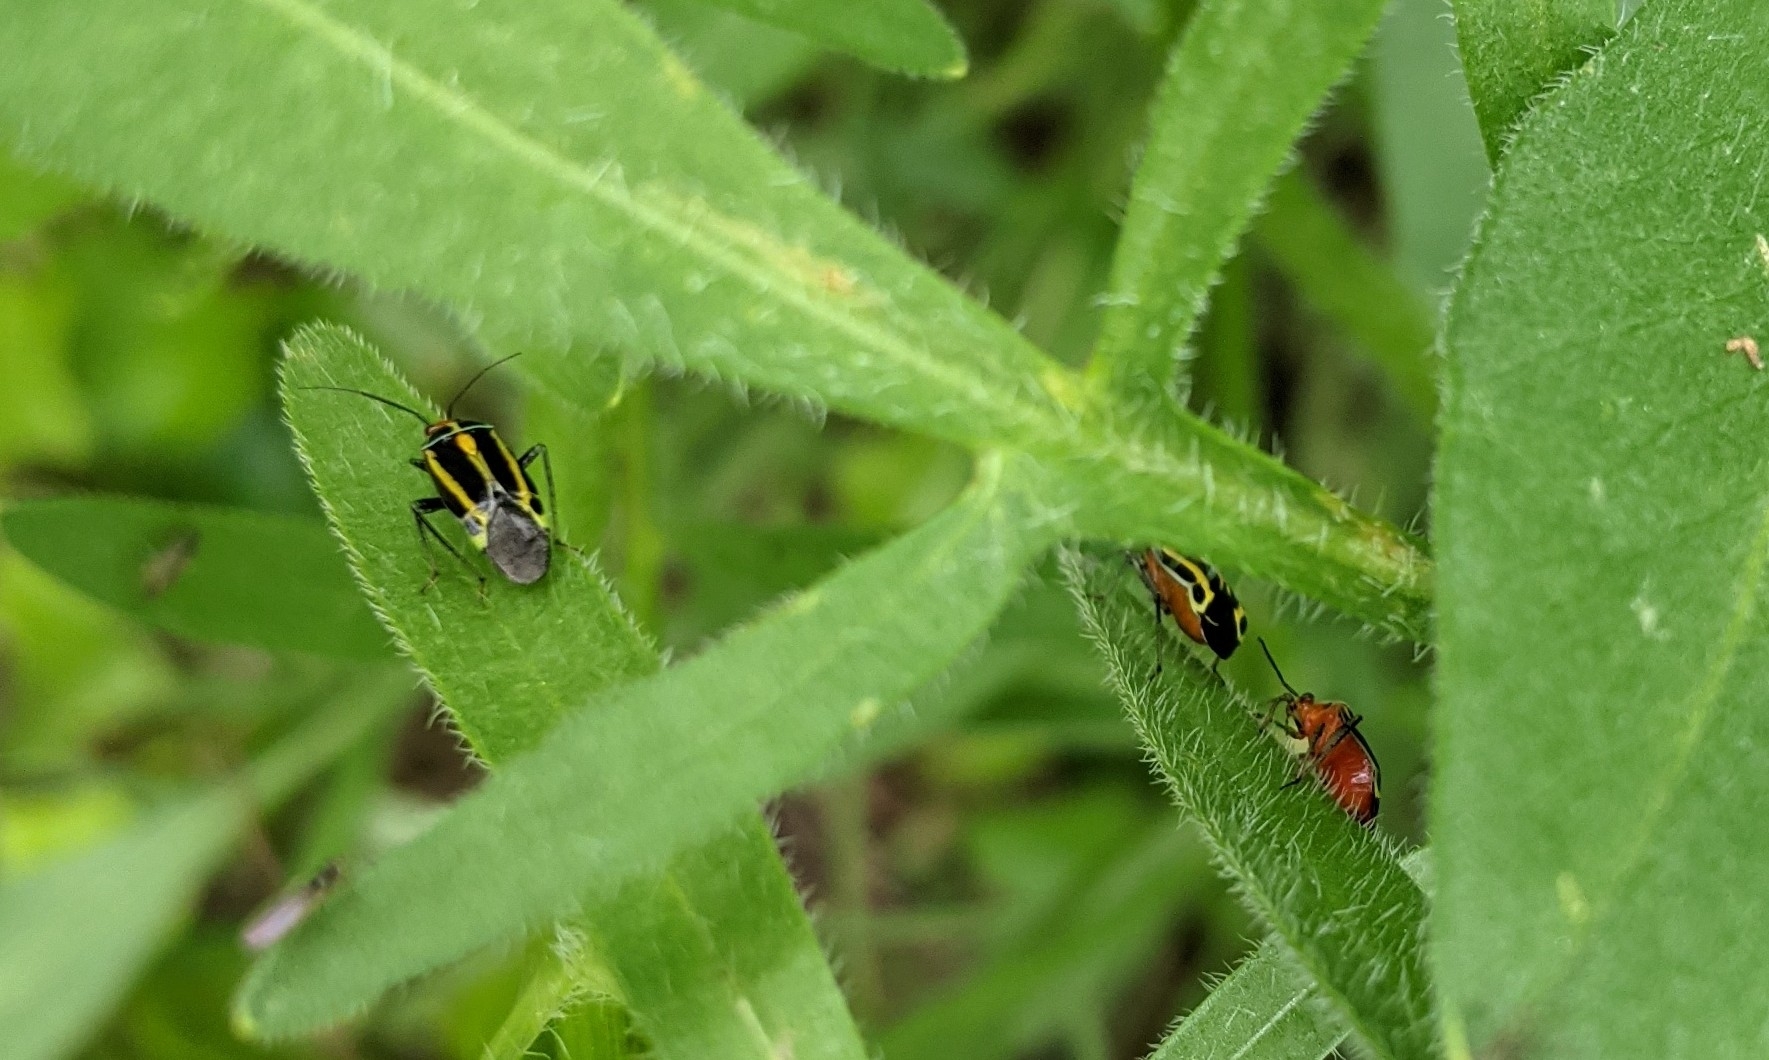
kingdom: Animalia
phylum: Arthropoda
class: Insecta
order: Hemiptera
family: Miridae
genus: Poecilocapsus
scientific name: Poecilocapsus lineatus
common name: Four-lined plant bug
